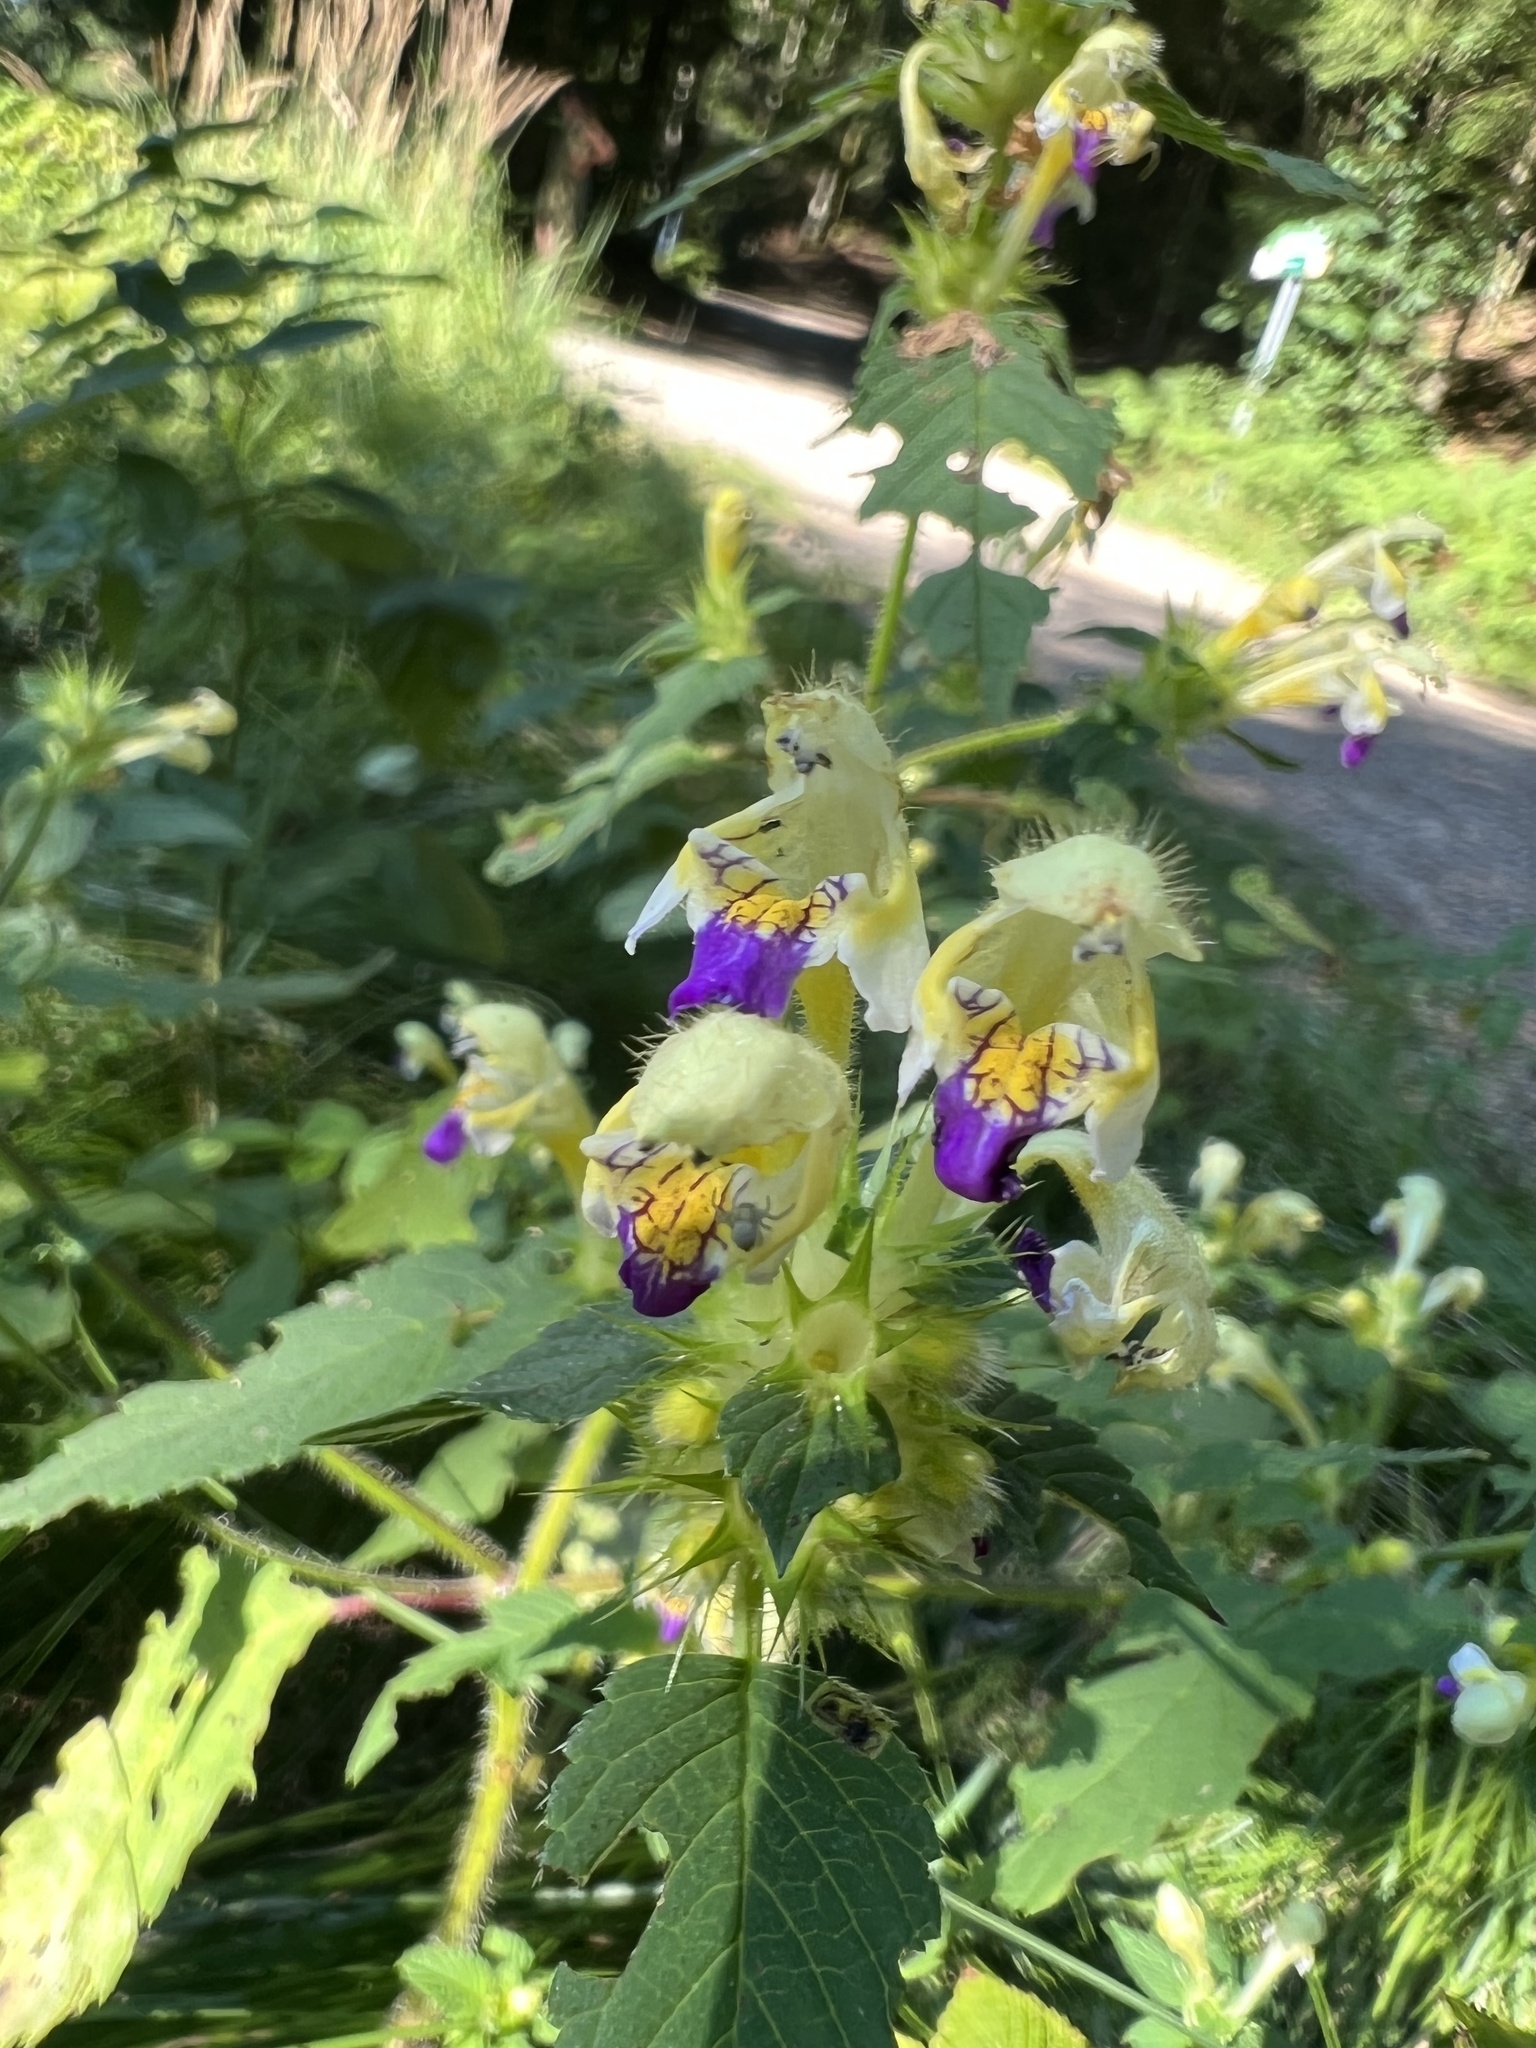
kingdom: Plantae
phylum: Tracheophyta
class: Magnoliopsida
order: Lamiales
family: Lamiaceae
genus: Galeopsis
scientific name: Galeopsis speciosa
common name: Large-flowered hemp-nettle
